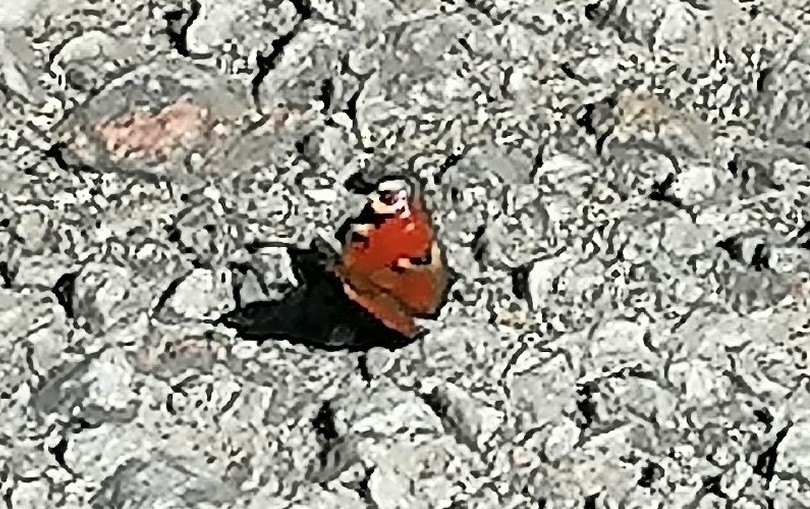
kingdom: Animalia
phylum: Arthropoda
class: Insecta
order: Lepidoptera
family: Nymphalidae
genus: Aglais
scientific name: Aglais io
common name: Peacock
